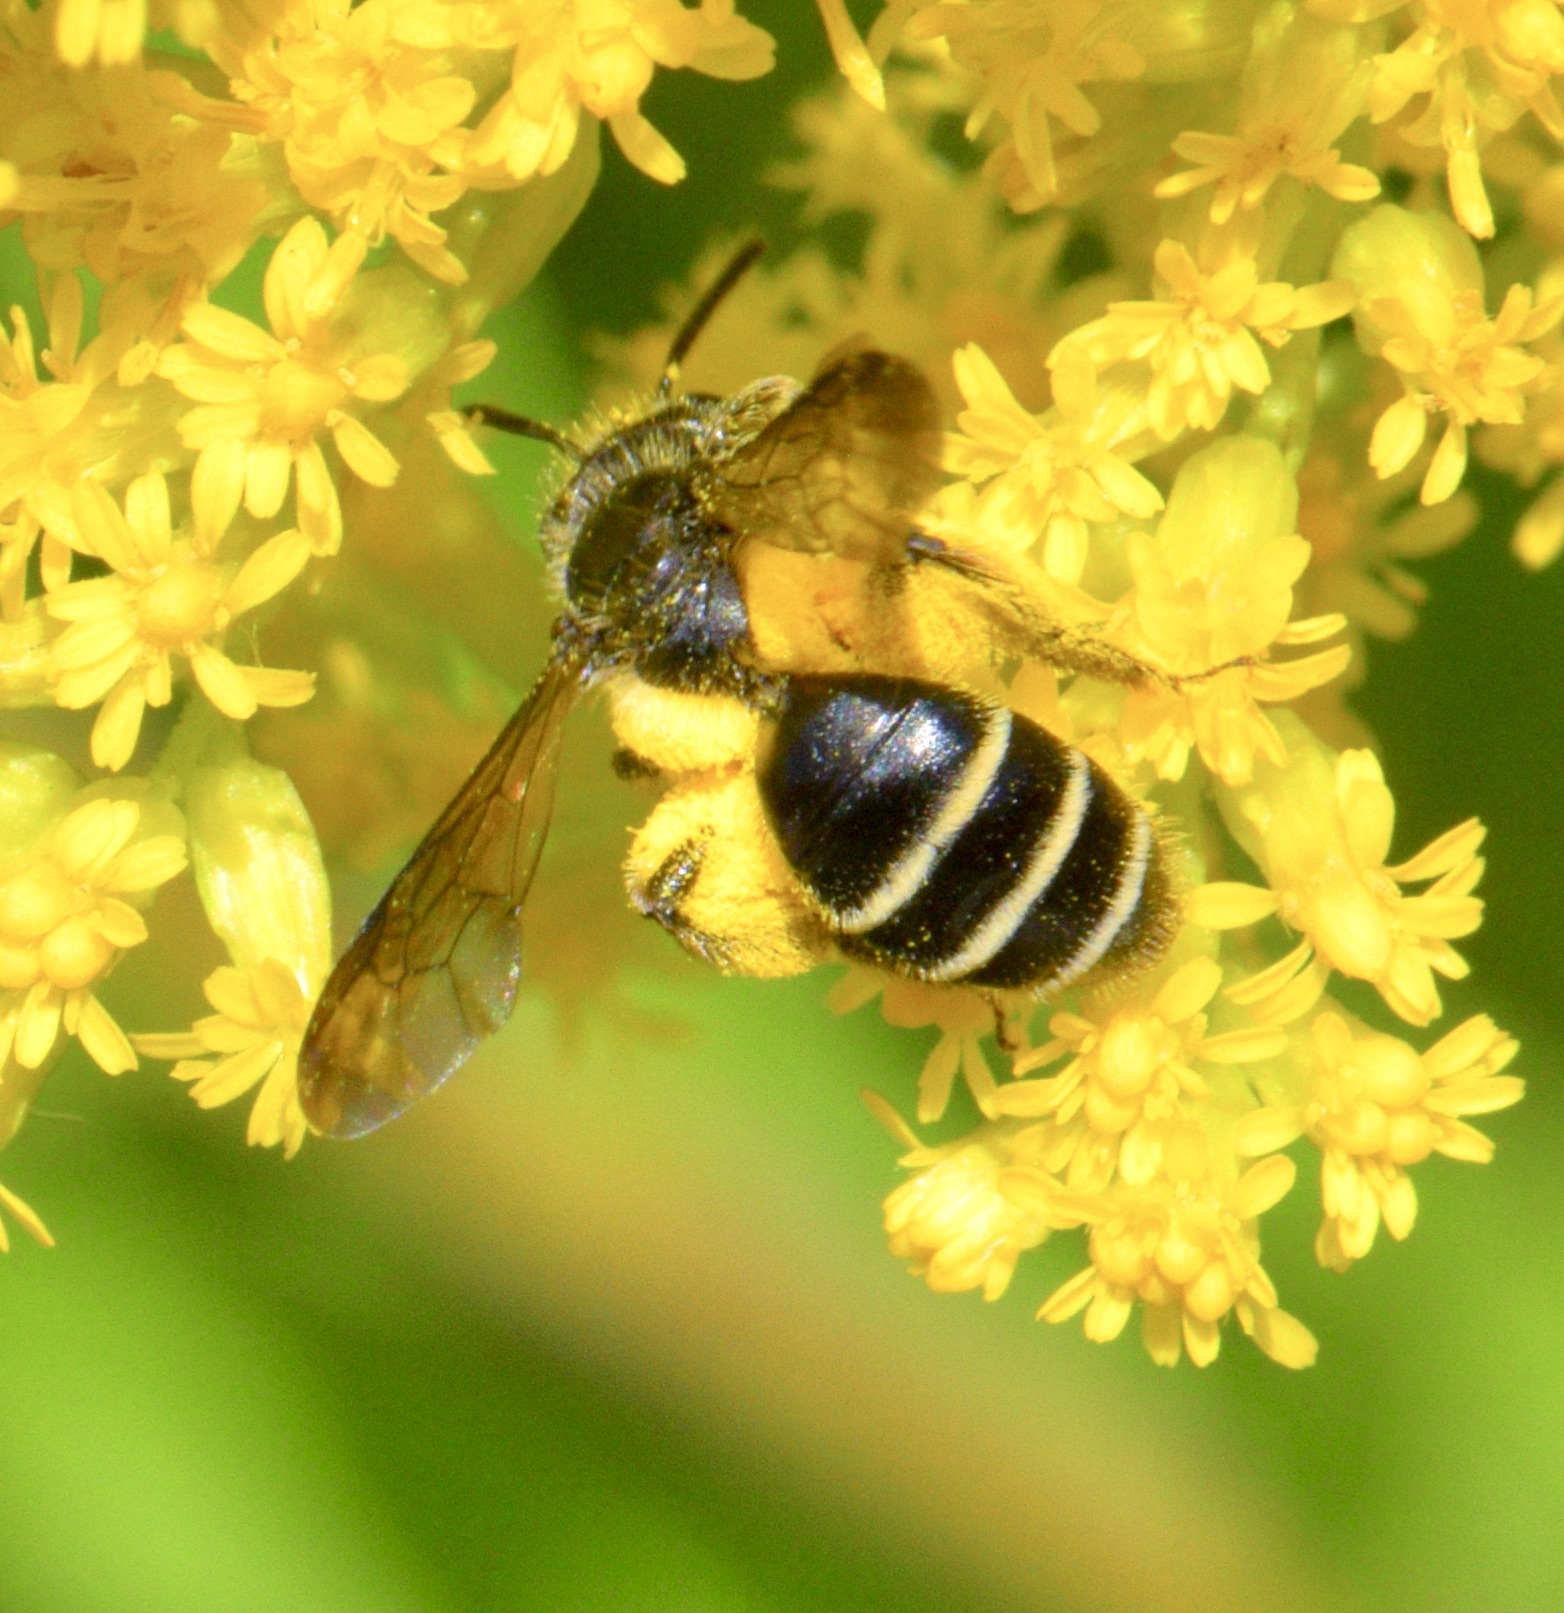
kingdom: Animalia
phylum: Arthropoda
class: Insecta
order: Hymenoptera
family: Andrenidae
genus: Andrena
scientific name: Andrena nubecula
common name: Cloudy-winged mining bee
